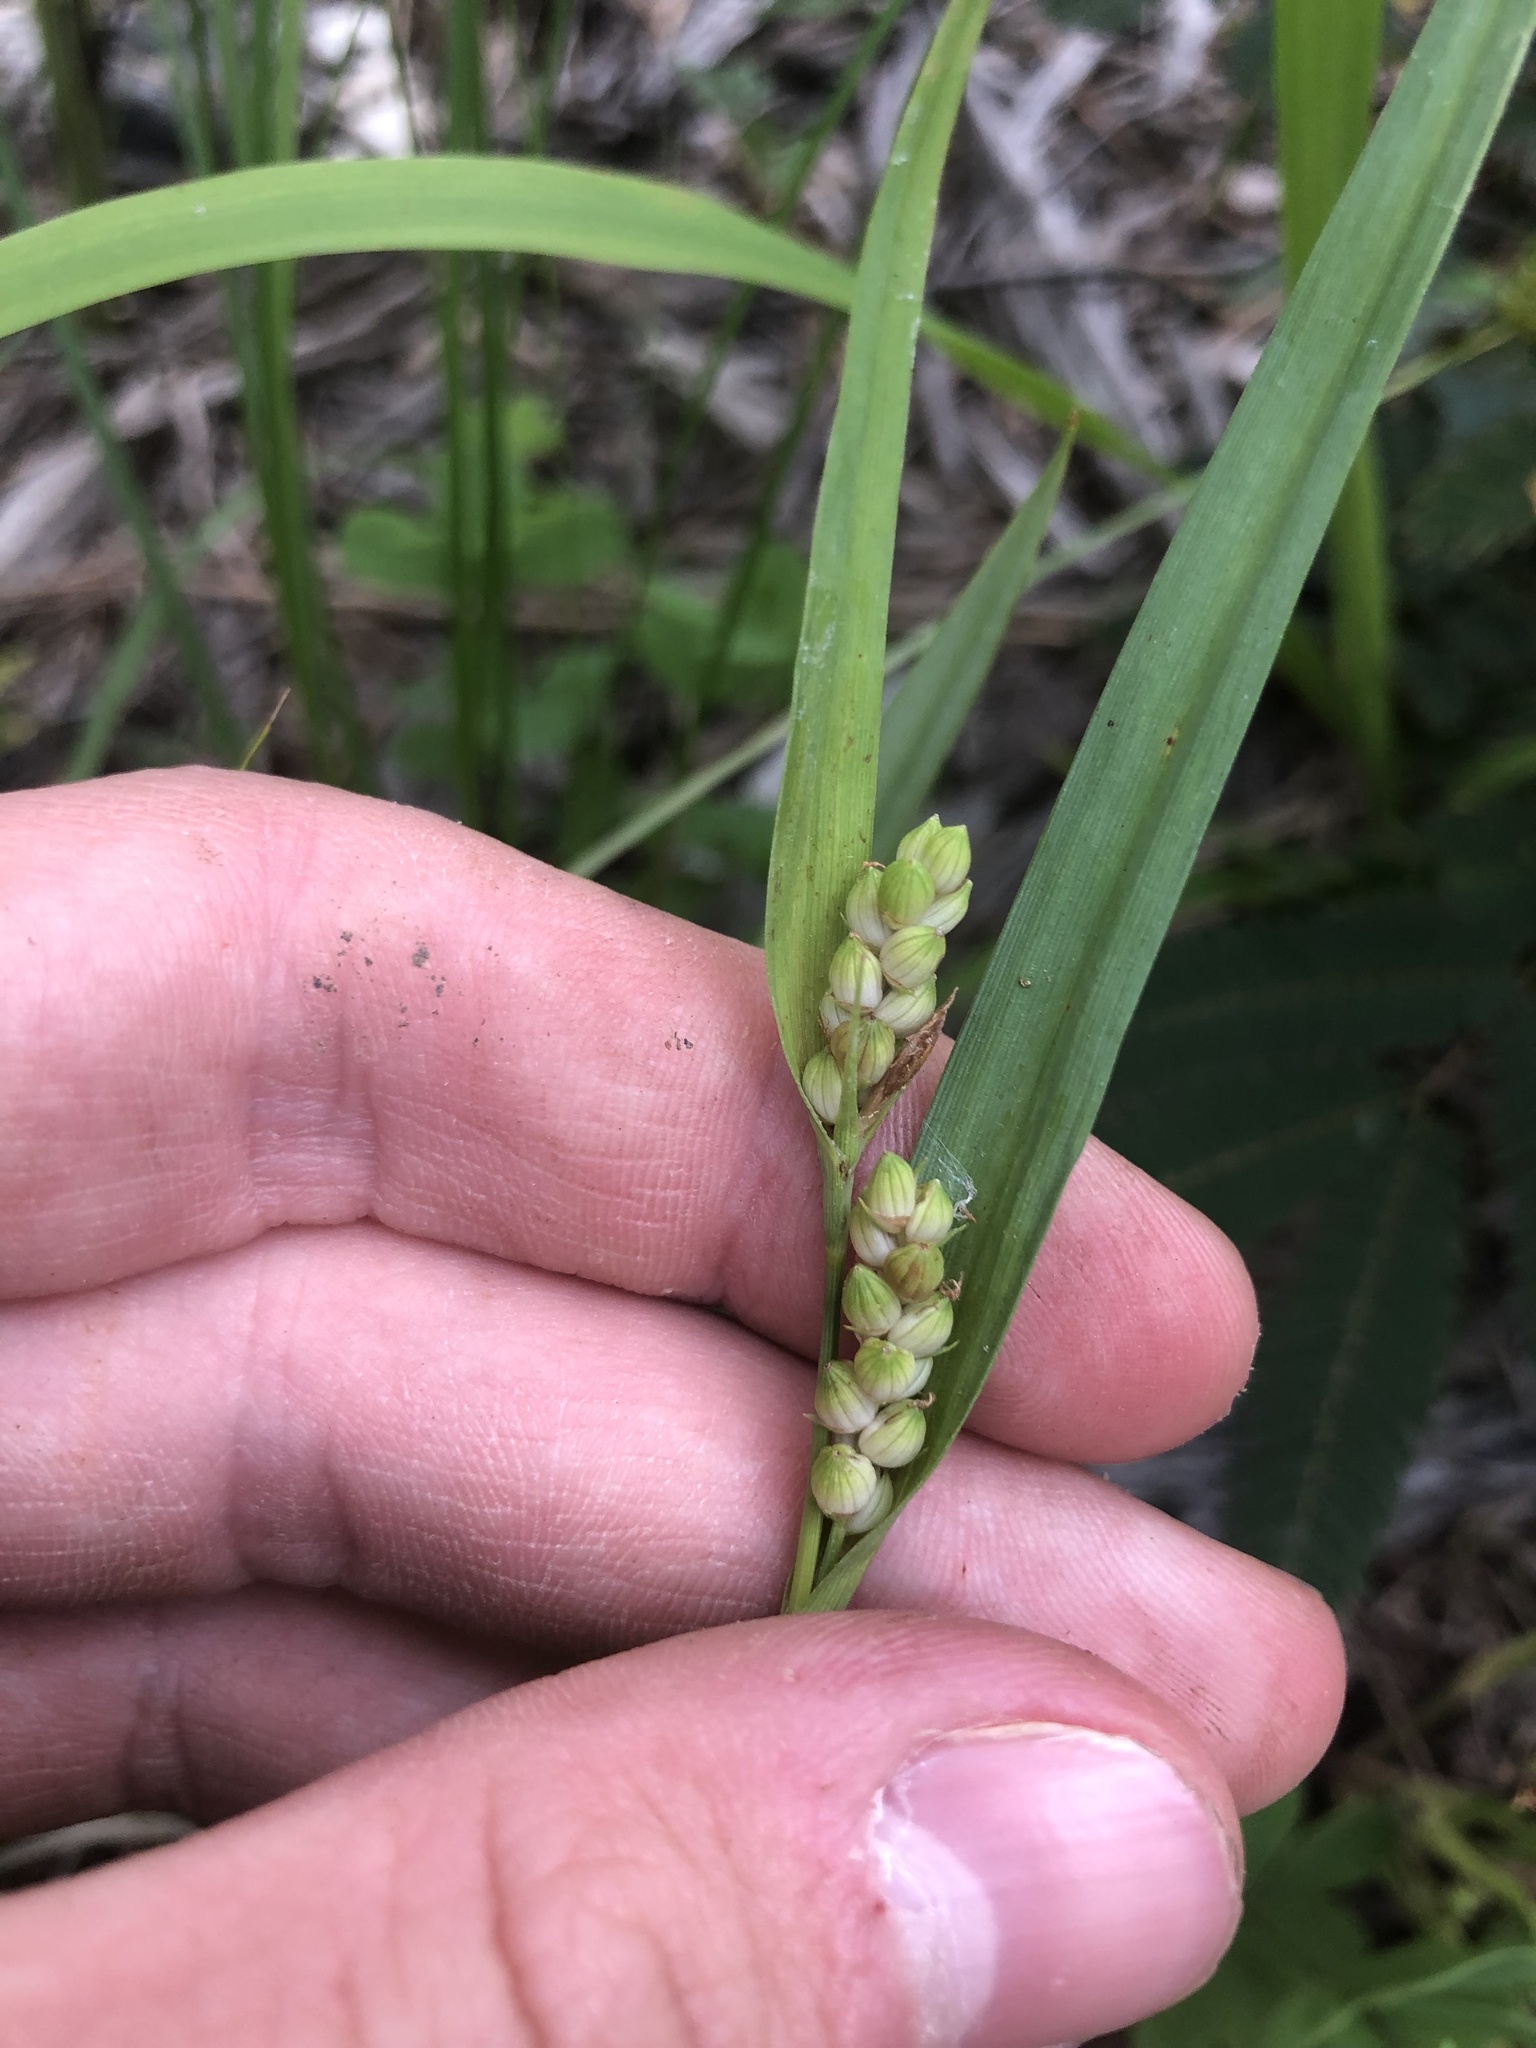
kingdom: Plantae
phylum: Tracheophyta
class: Liliopsida
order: Poales
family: Cyperaceae
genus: Carex
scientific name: Carex glaucodea
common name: Blue sedge
